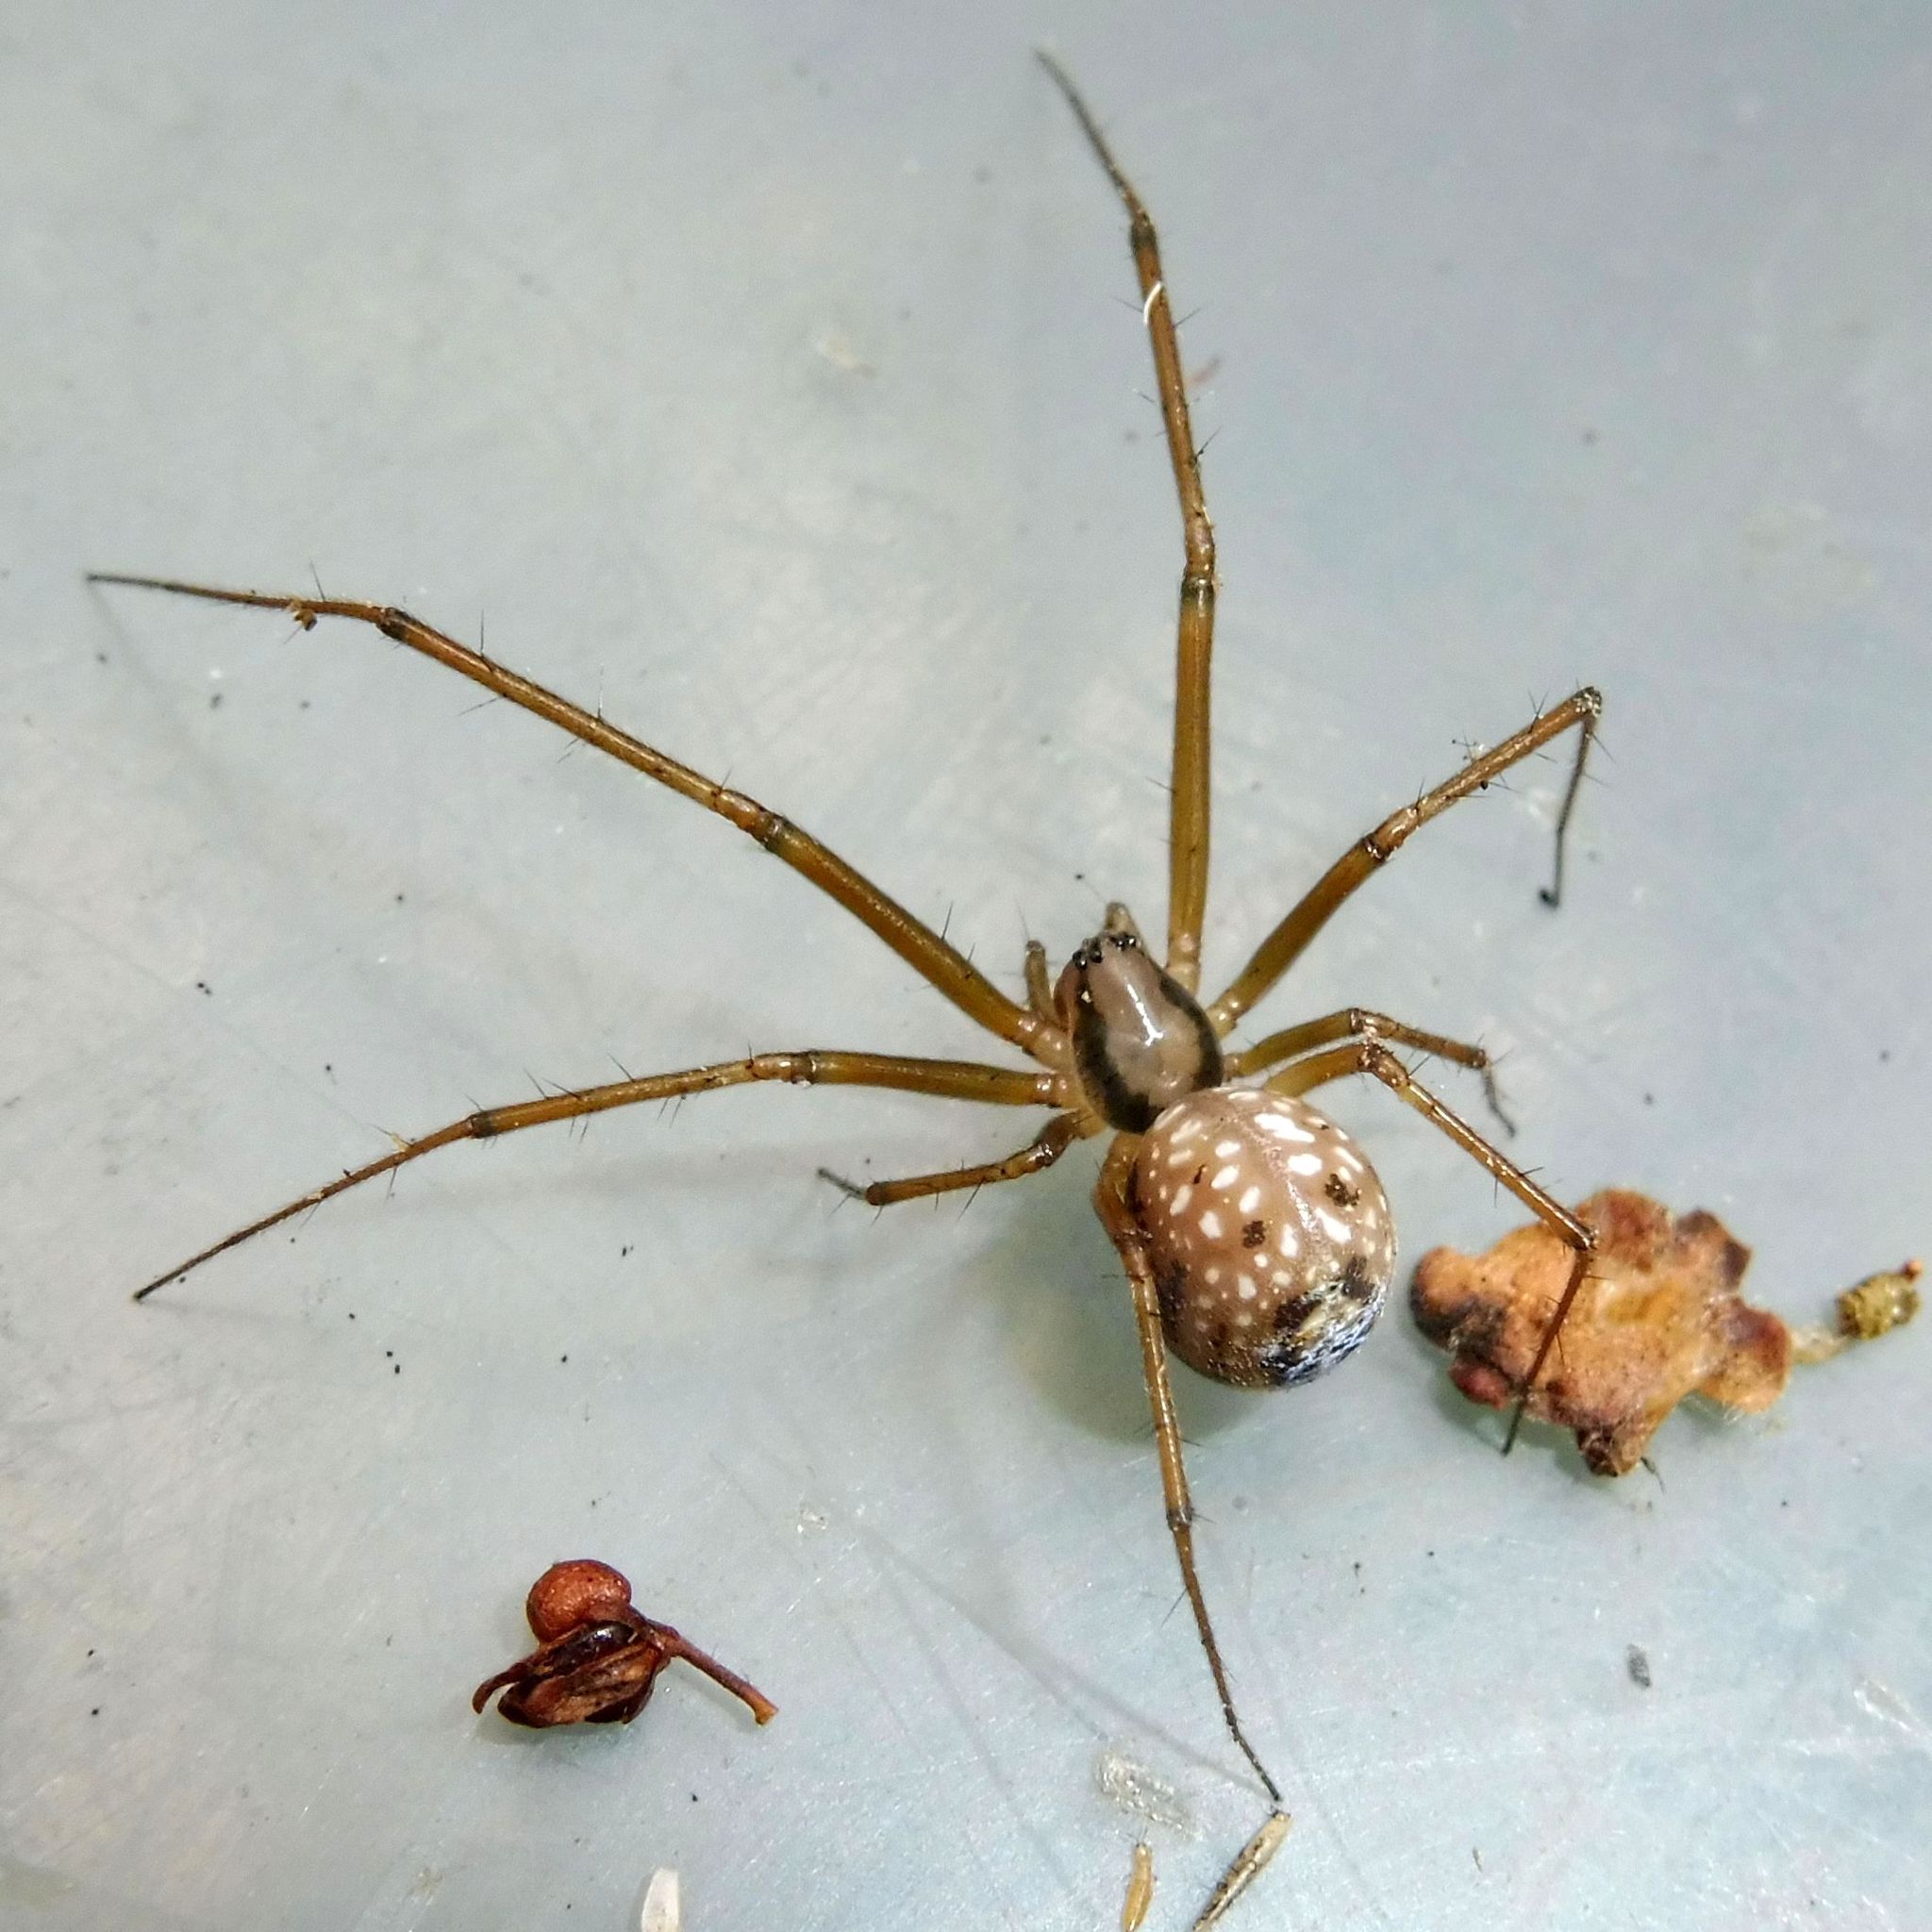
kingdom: Animalia
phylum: Arthropoda
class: Arachnida
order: Araneae
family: Linyphiidae
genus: Floronia
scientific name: Floronia bucculenta
